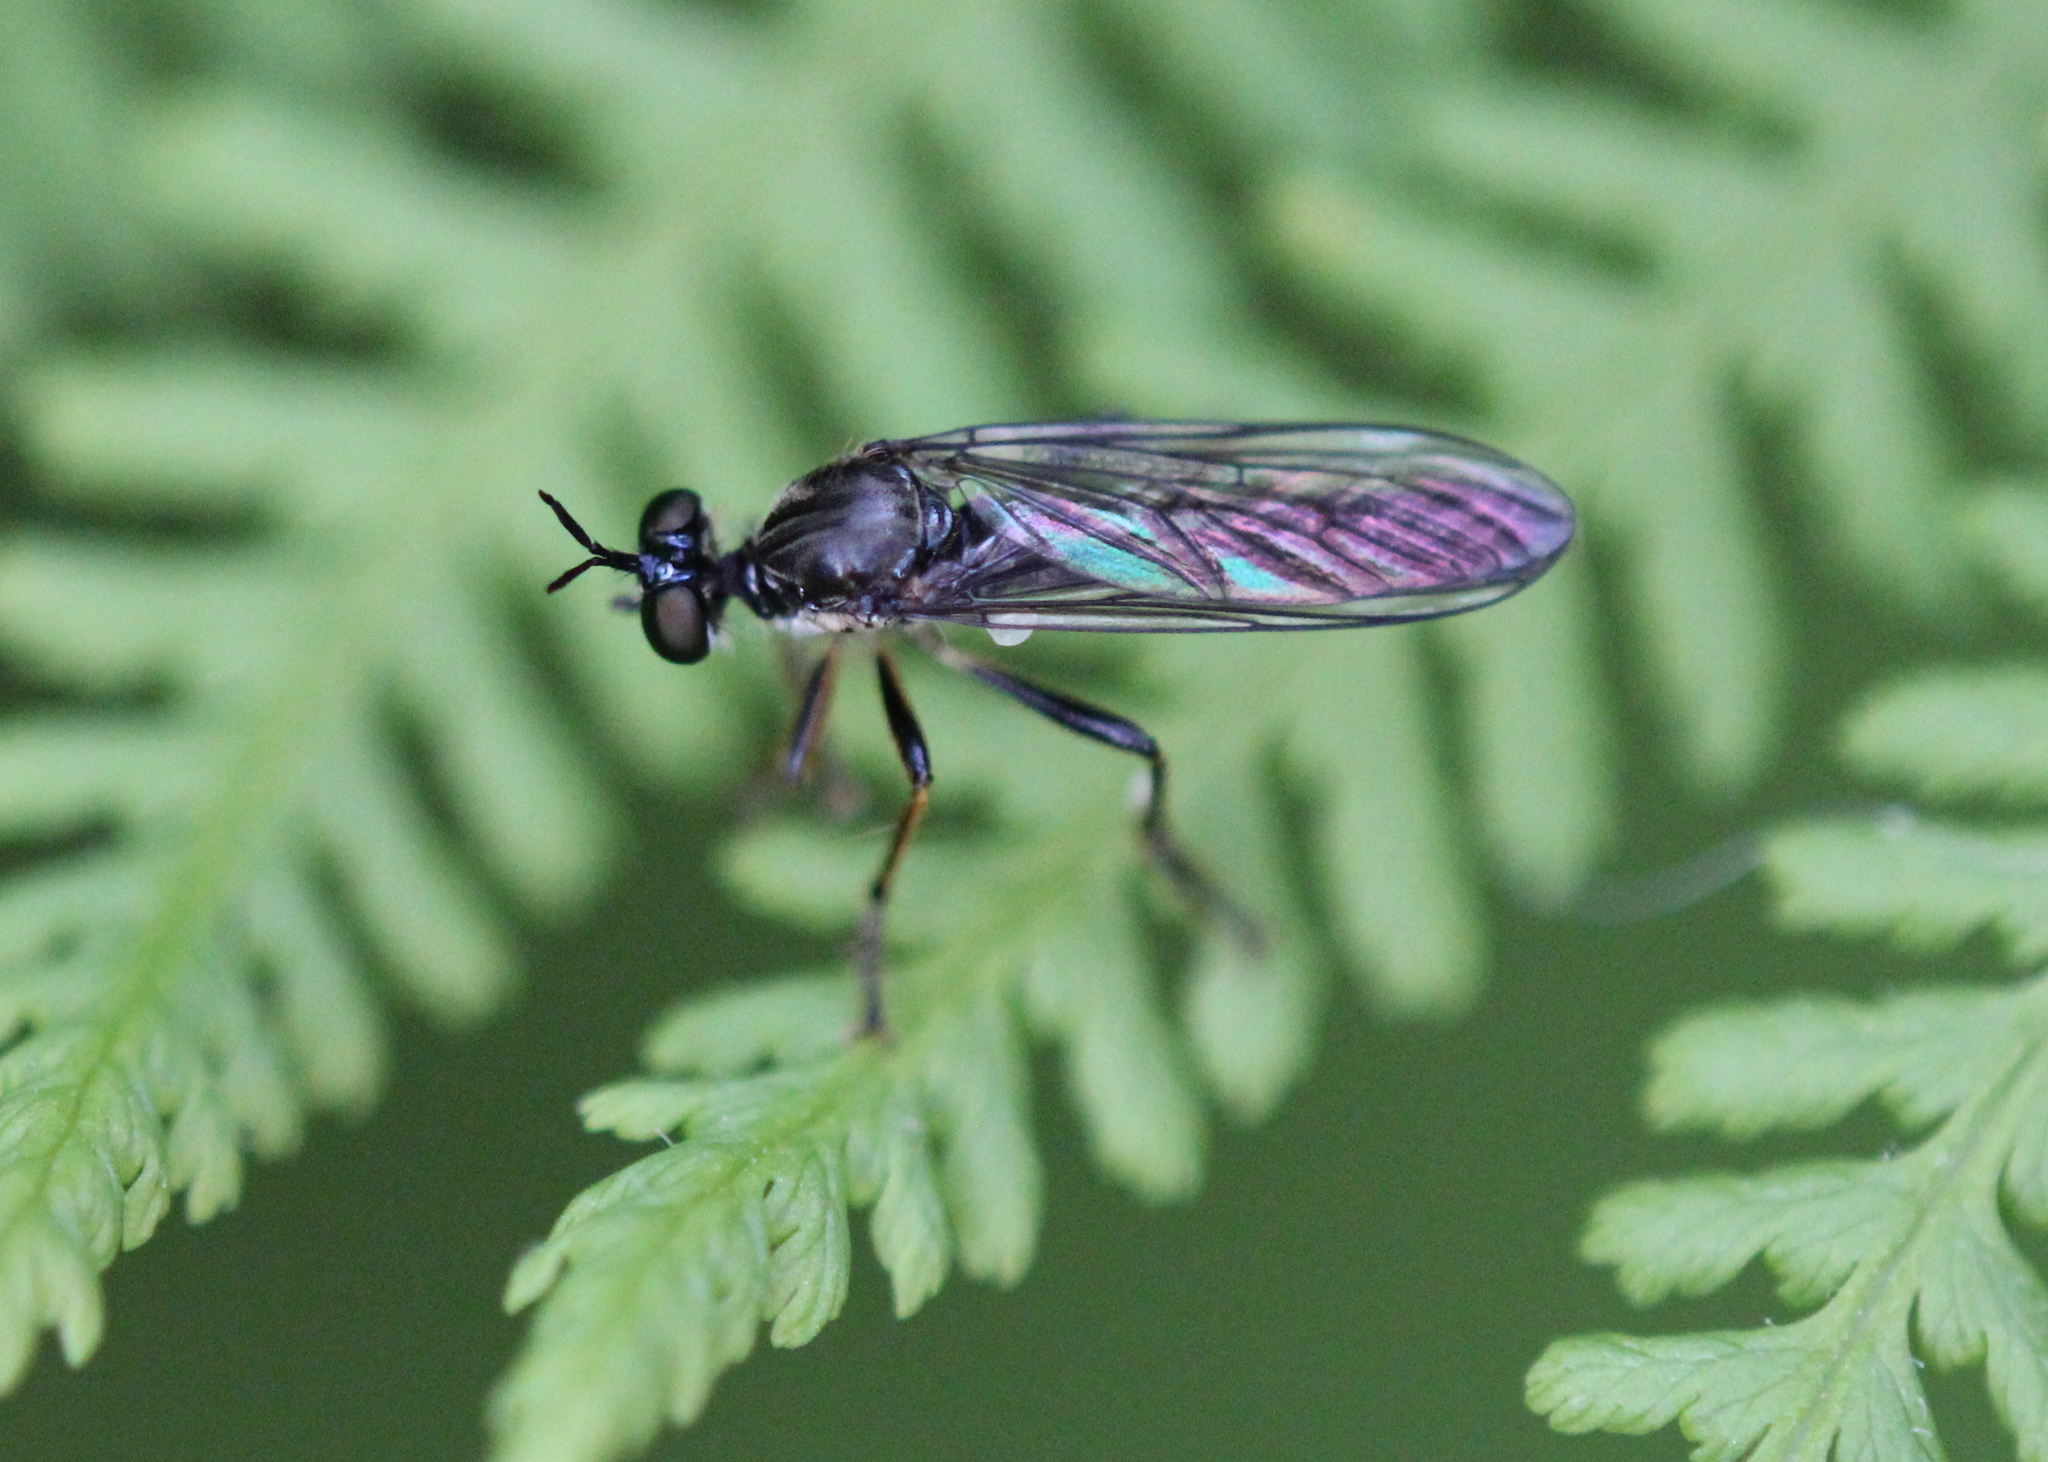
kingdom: Animalia
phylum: Arthropoda
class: Insecta
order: Diptera
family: Asilidae
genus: Dioctria
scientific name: Dioctria hyalipennis
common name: Stripe-legged robberfly
